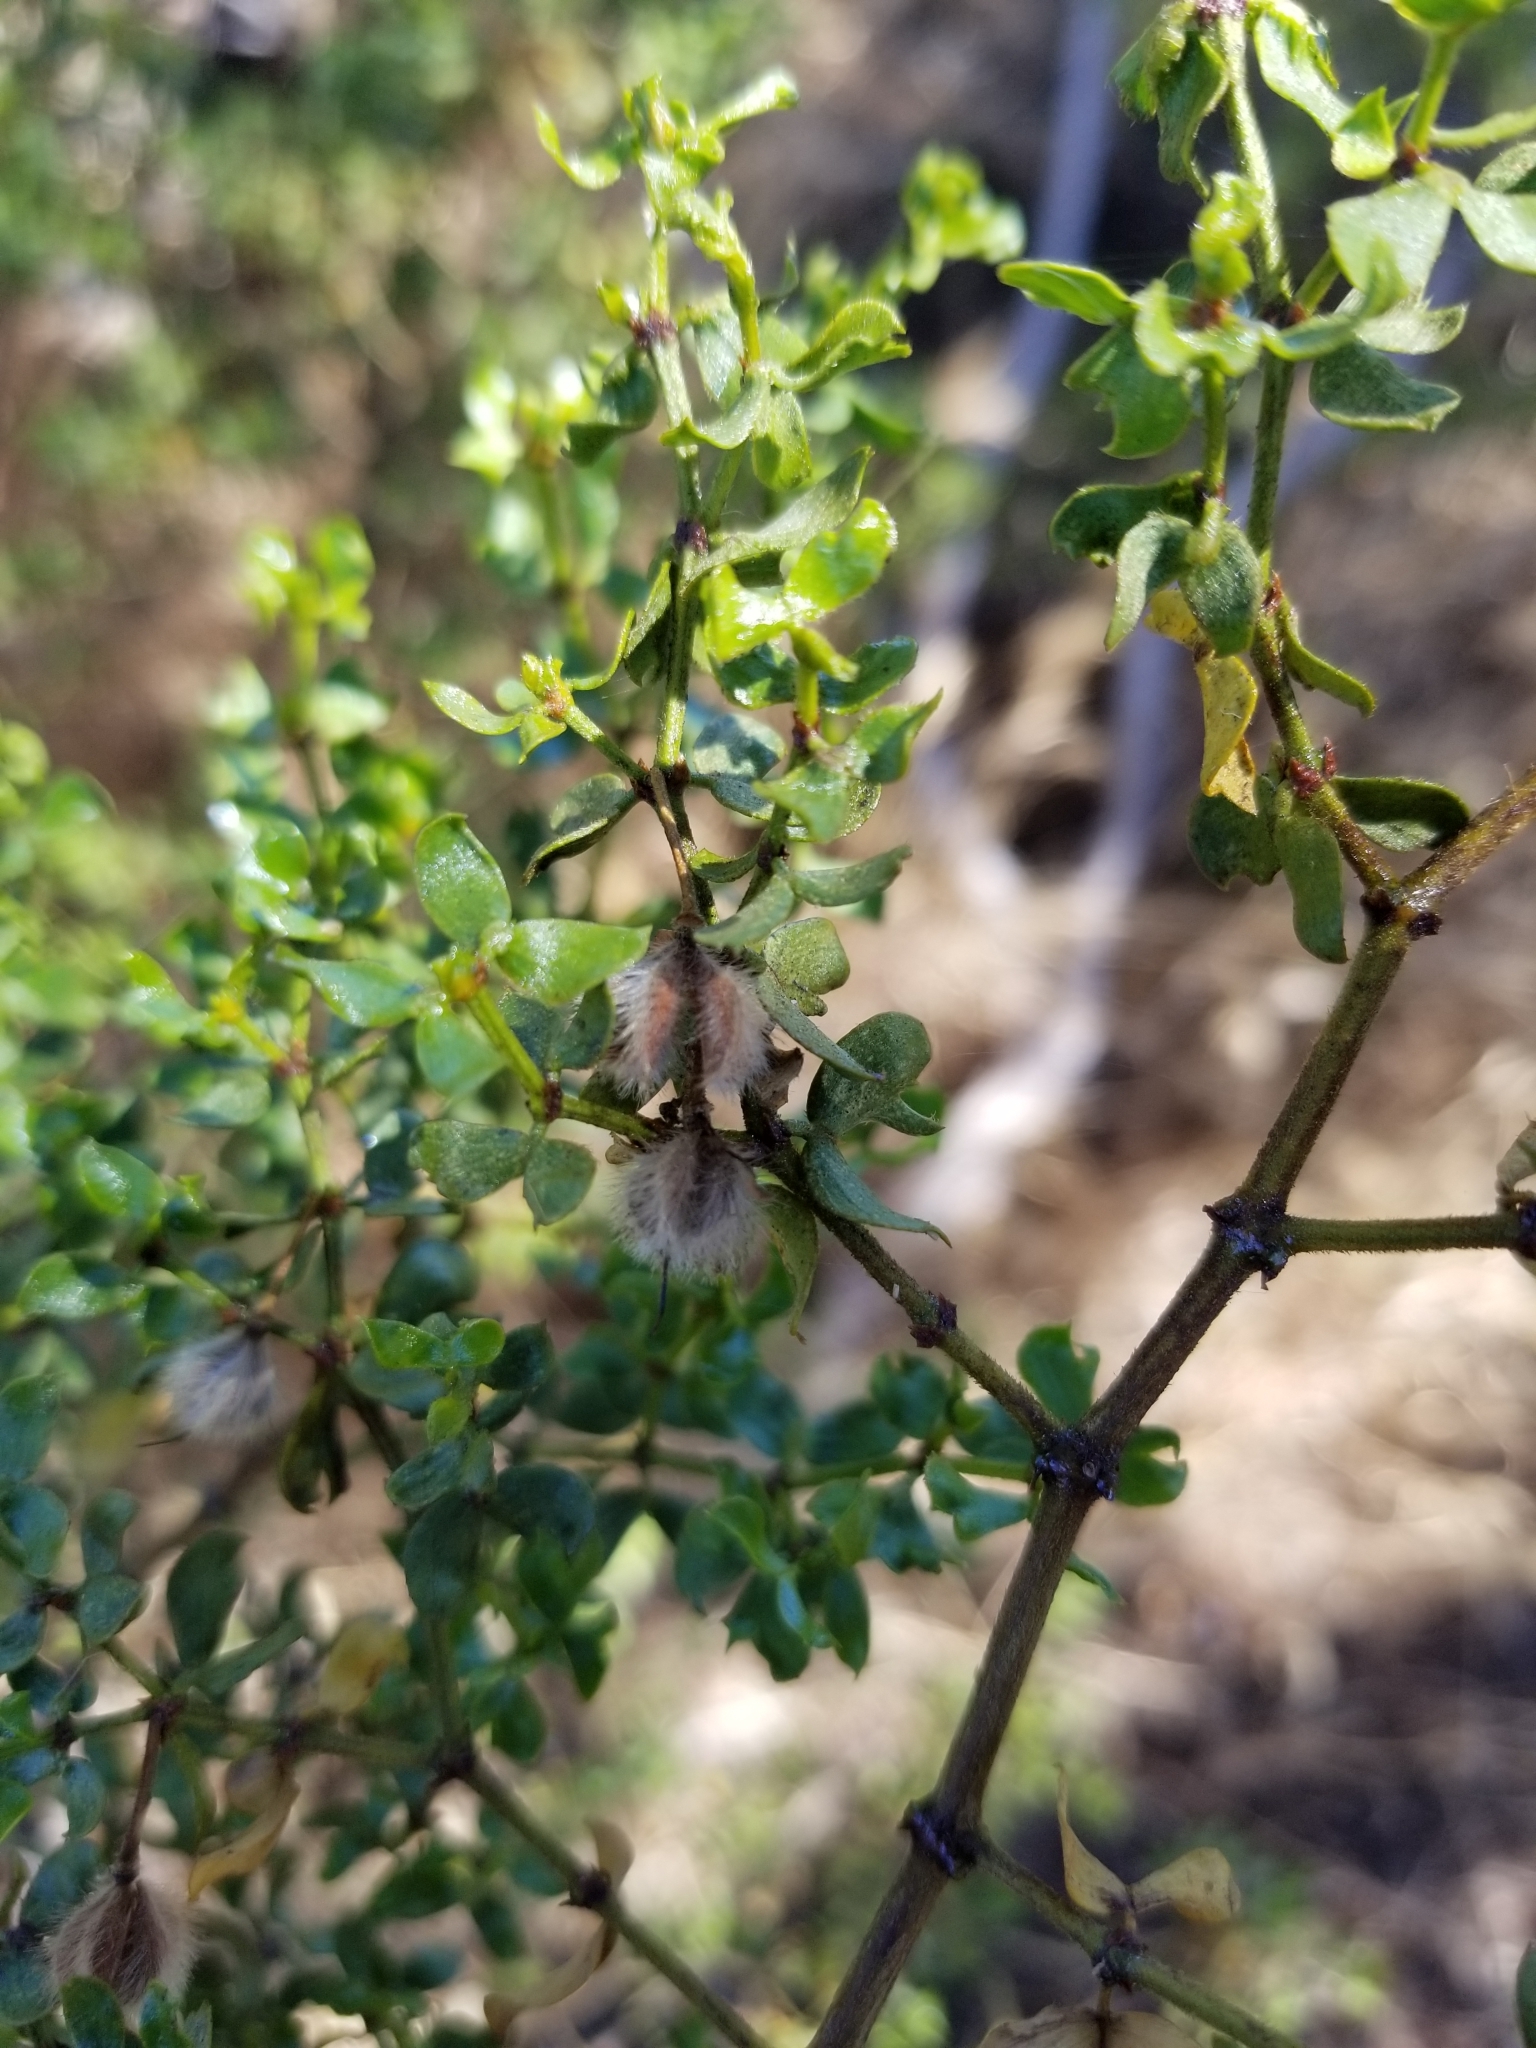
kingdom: Plantae
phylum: Tracheophyta
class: Magnoliopsida
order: Zygophyllales
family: Zygophyllaceae
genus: Larrea
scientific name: Larrea tridentata
